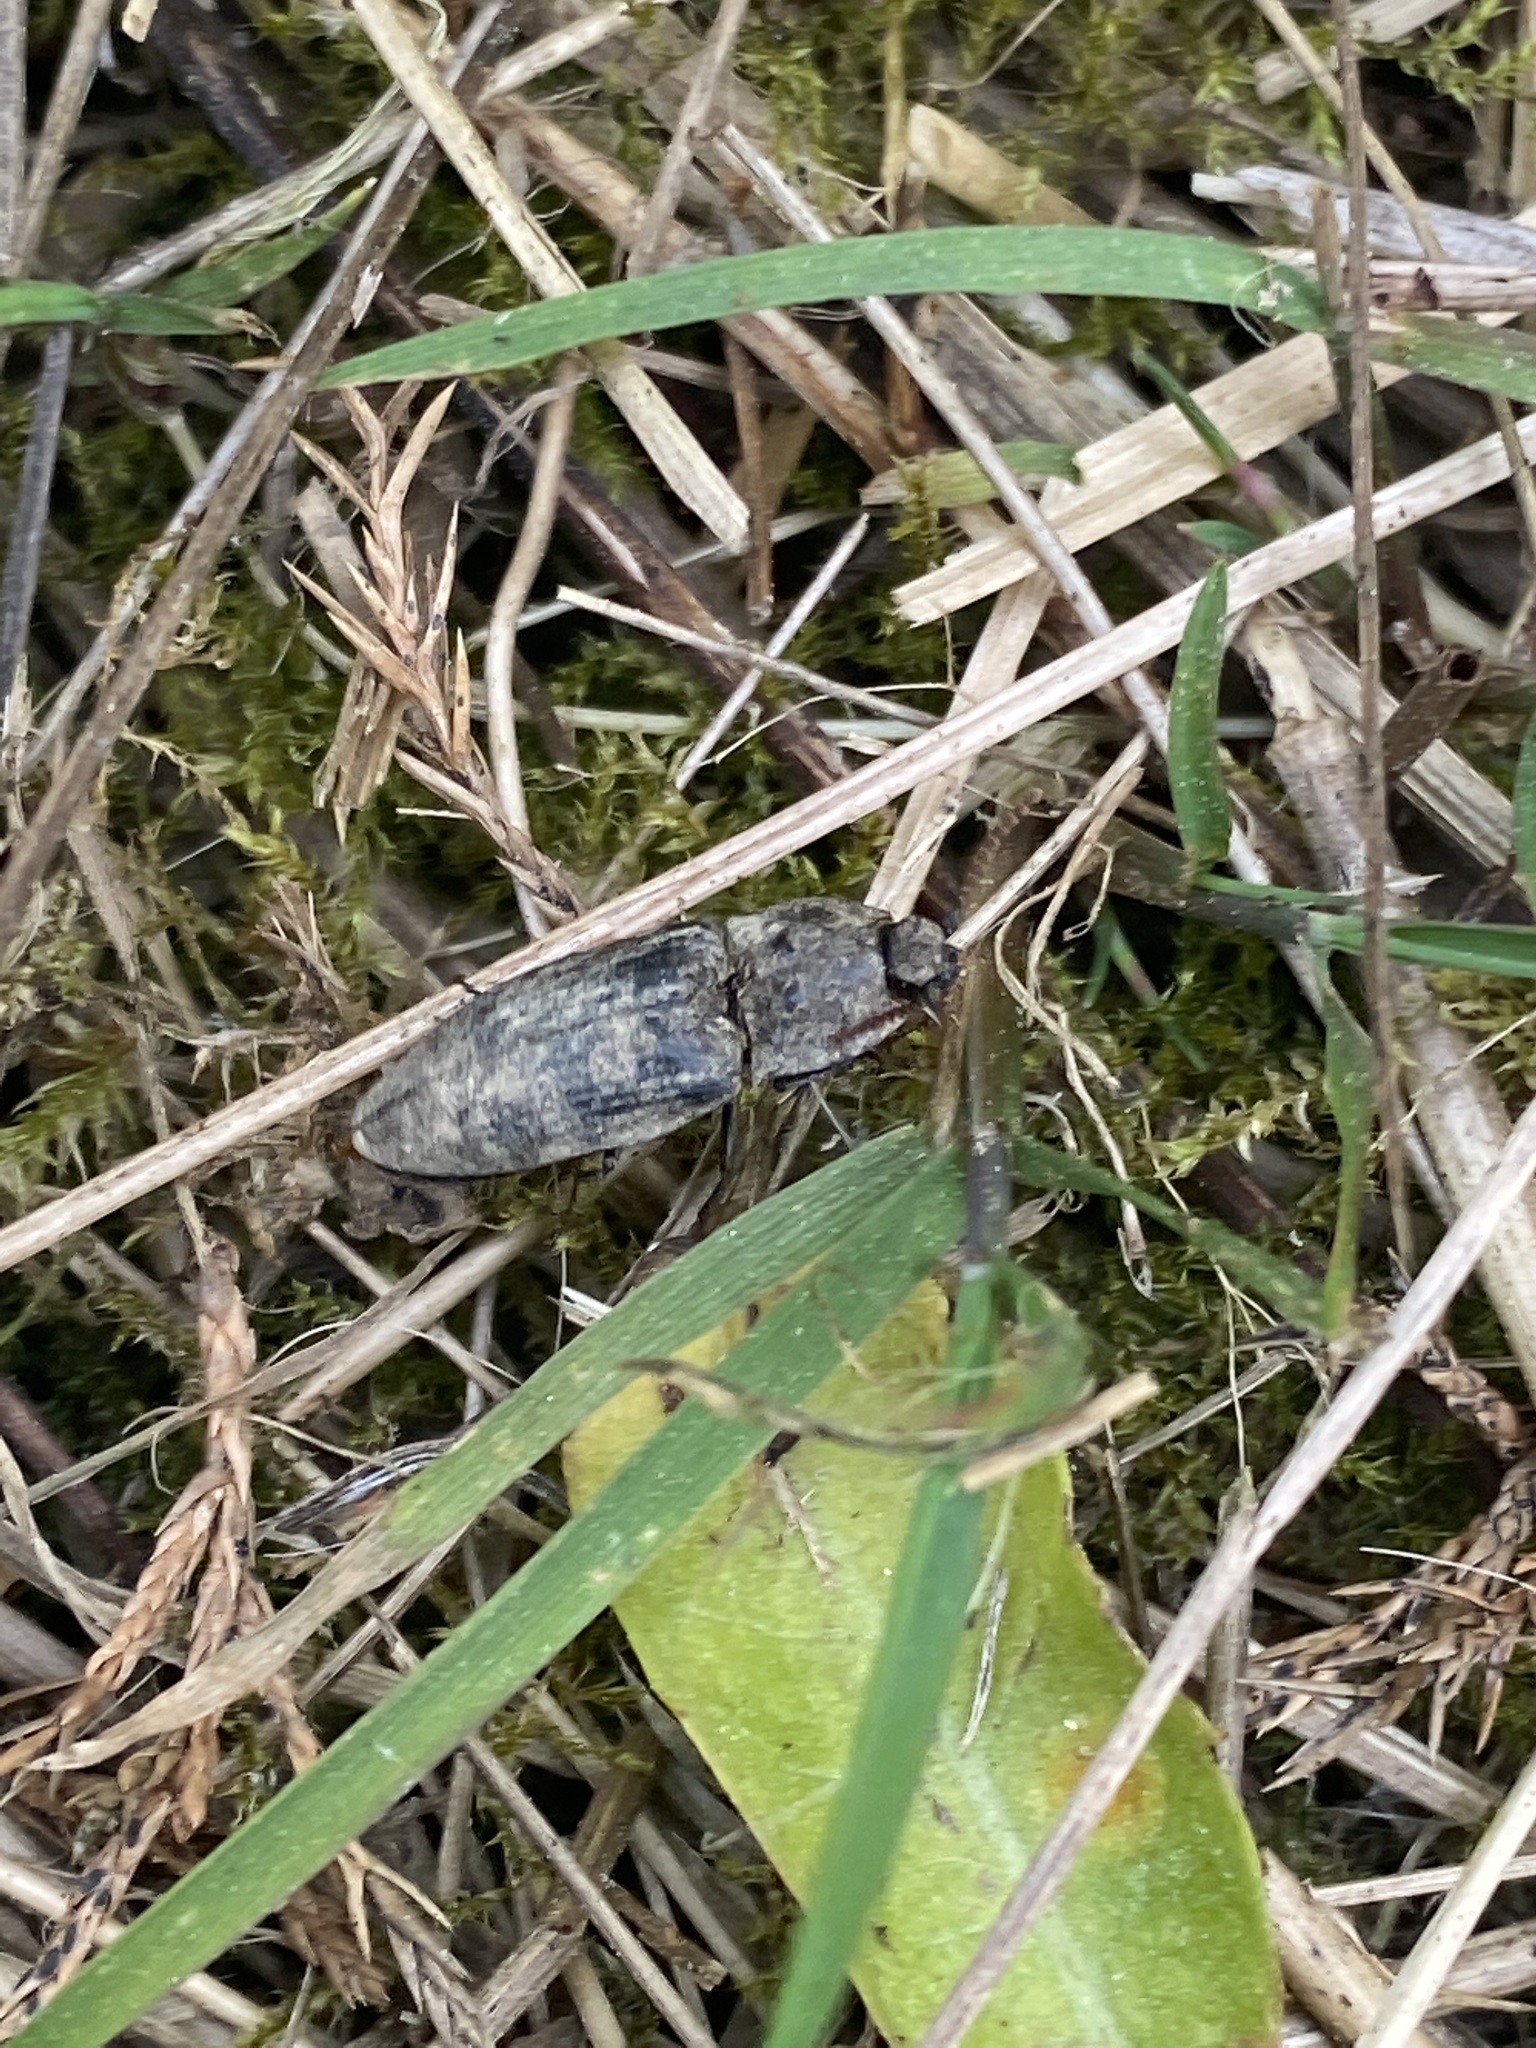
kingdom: Animalia
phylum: Arthropoda
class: Insecta
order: Coleoptera
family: Elateridae
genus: Agrypnus
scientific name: Agrypnus murinus
